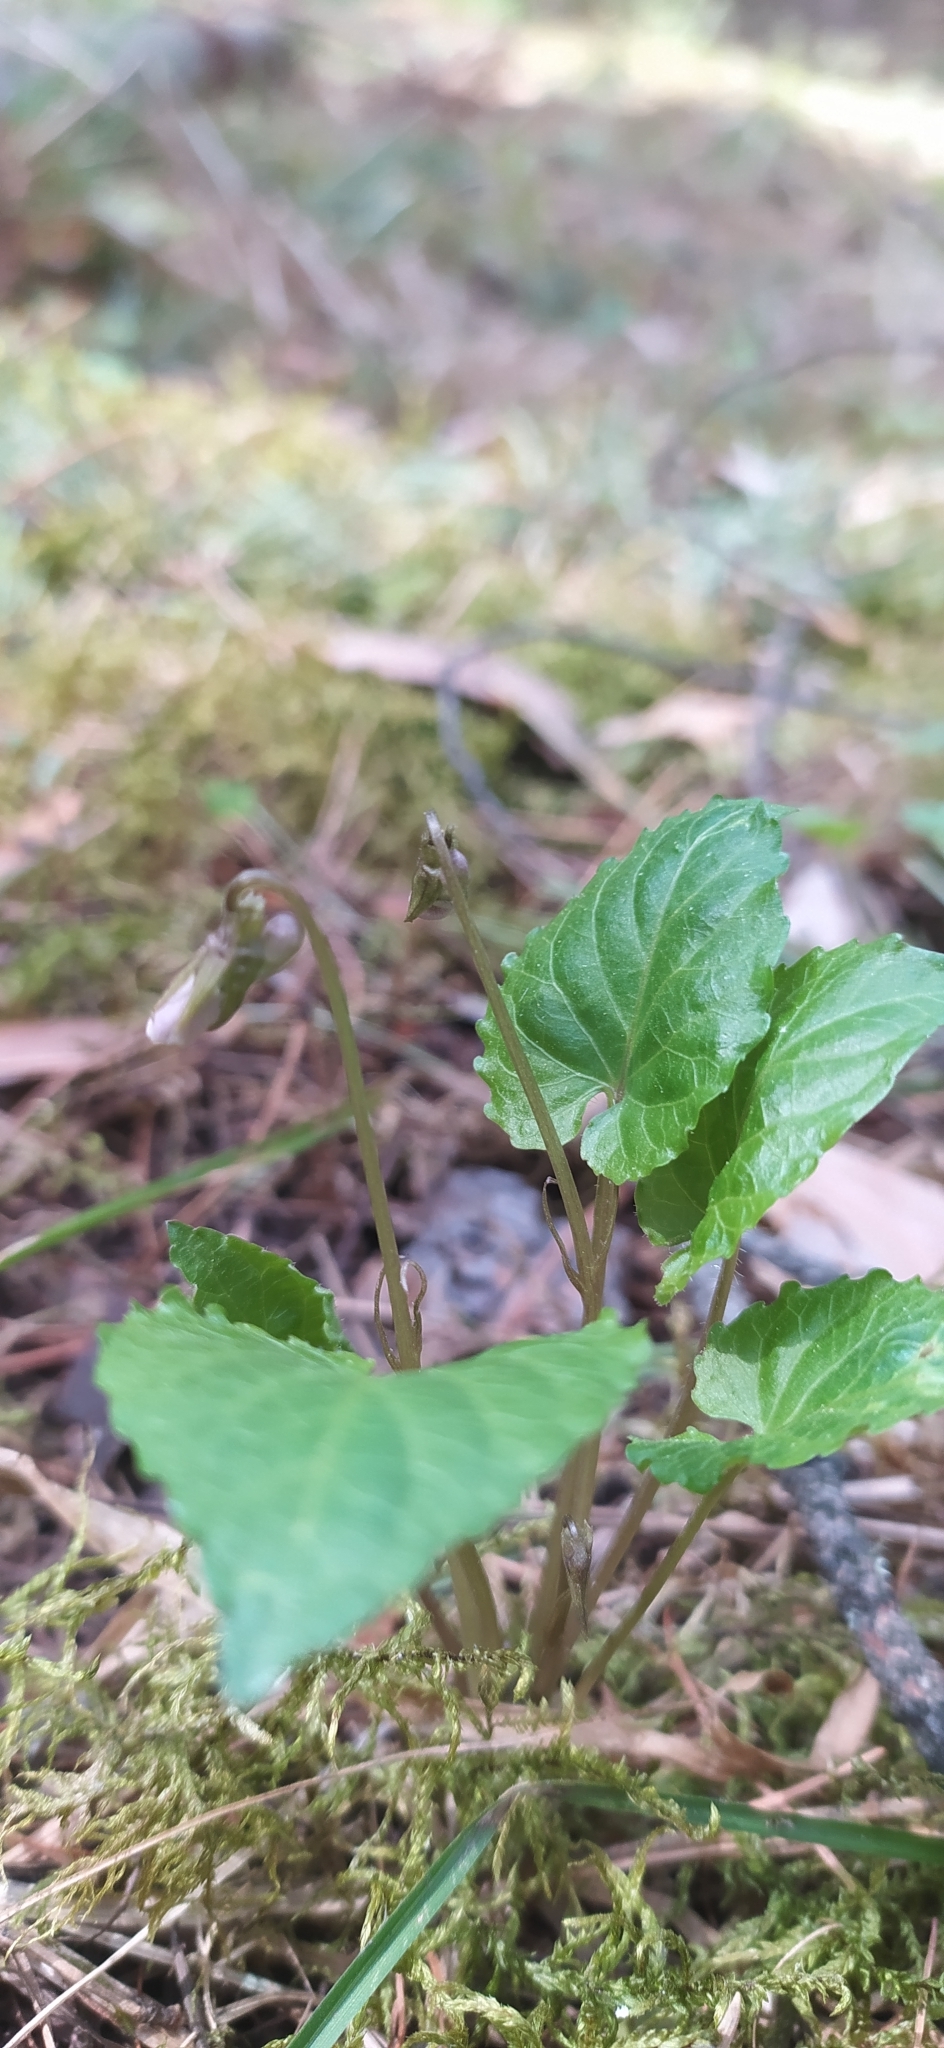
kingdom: Plantae
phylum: Tracheophyta
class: Magnoliopsida
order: Malpighiales
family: Violaceae
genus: Viola
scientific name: Viola selkirkii
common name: Selkirk's violet
